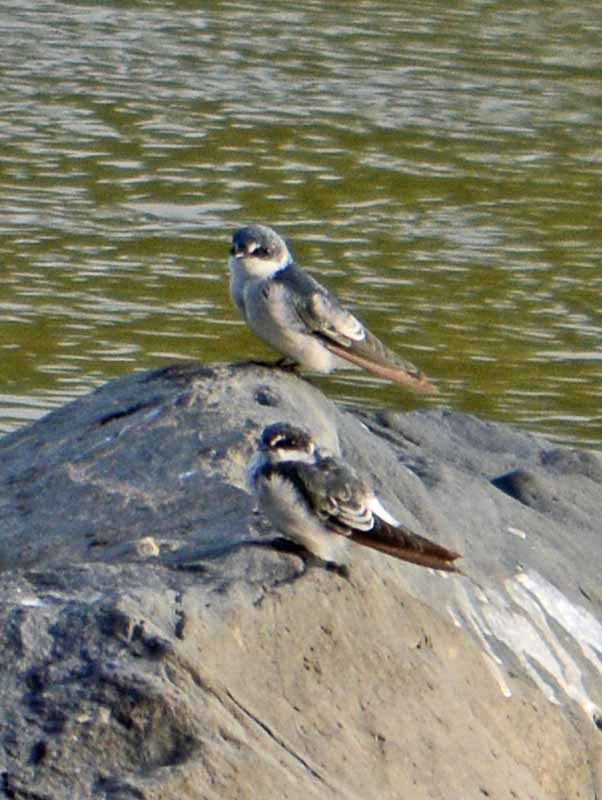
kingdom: Animalia
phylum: Chordata
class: Aves
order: Passeriformes
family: Hirundinidae
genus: Tachycineta
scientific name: Tachycineta albilinea
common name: Mangrove swallow
